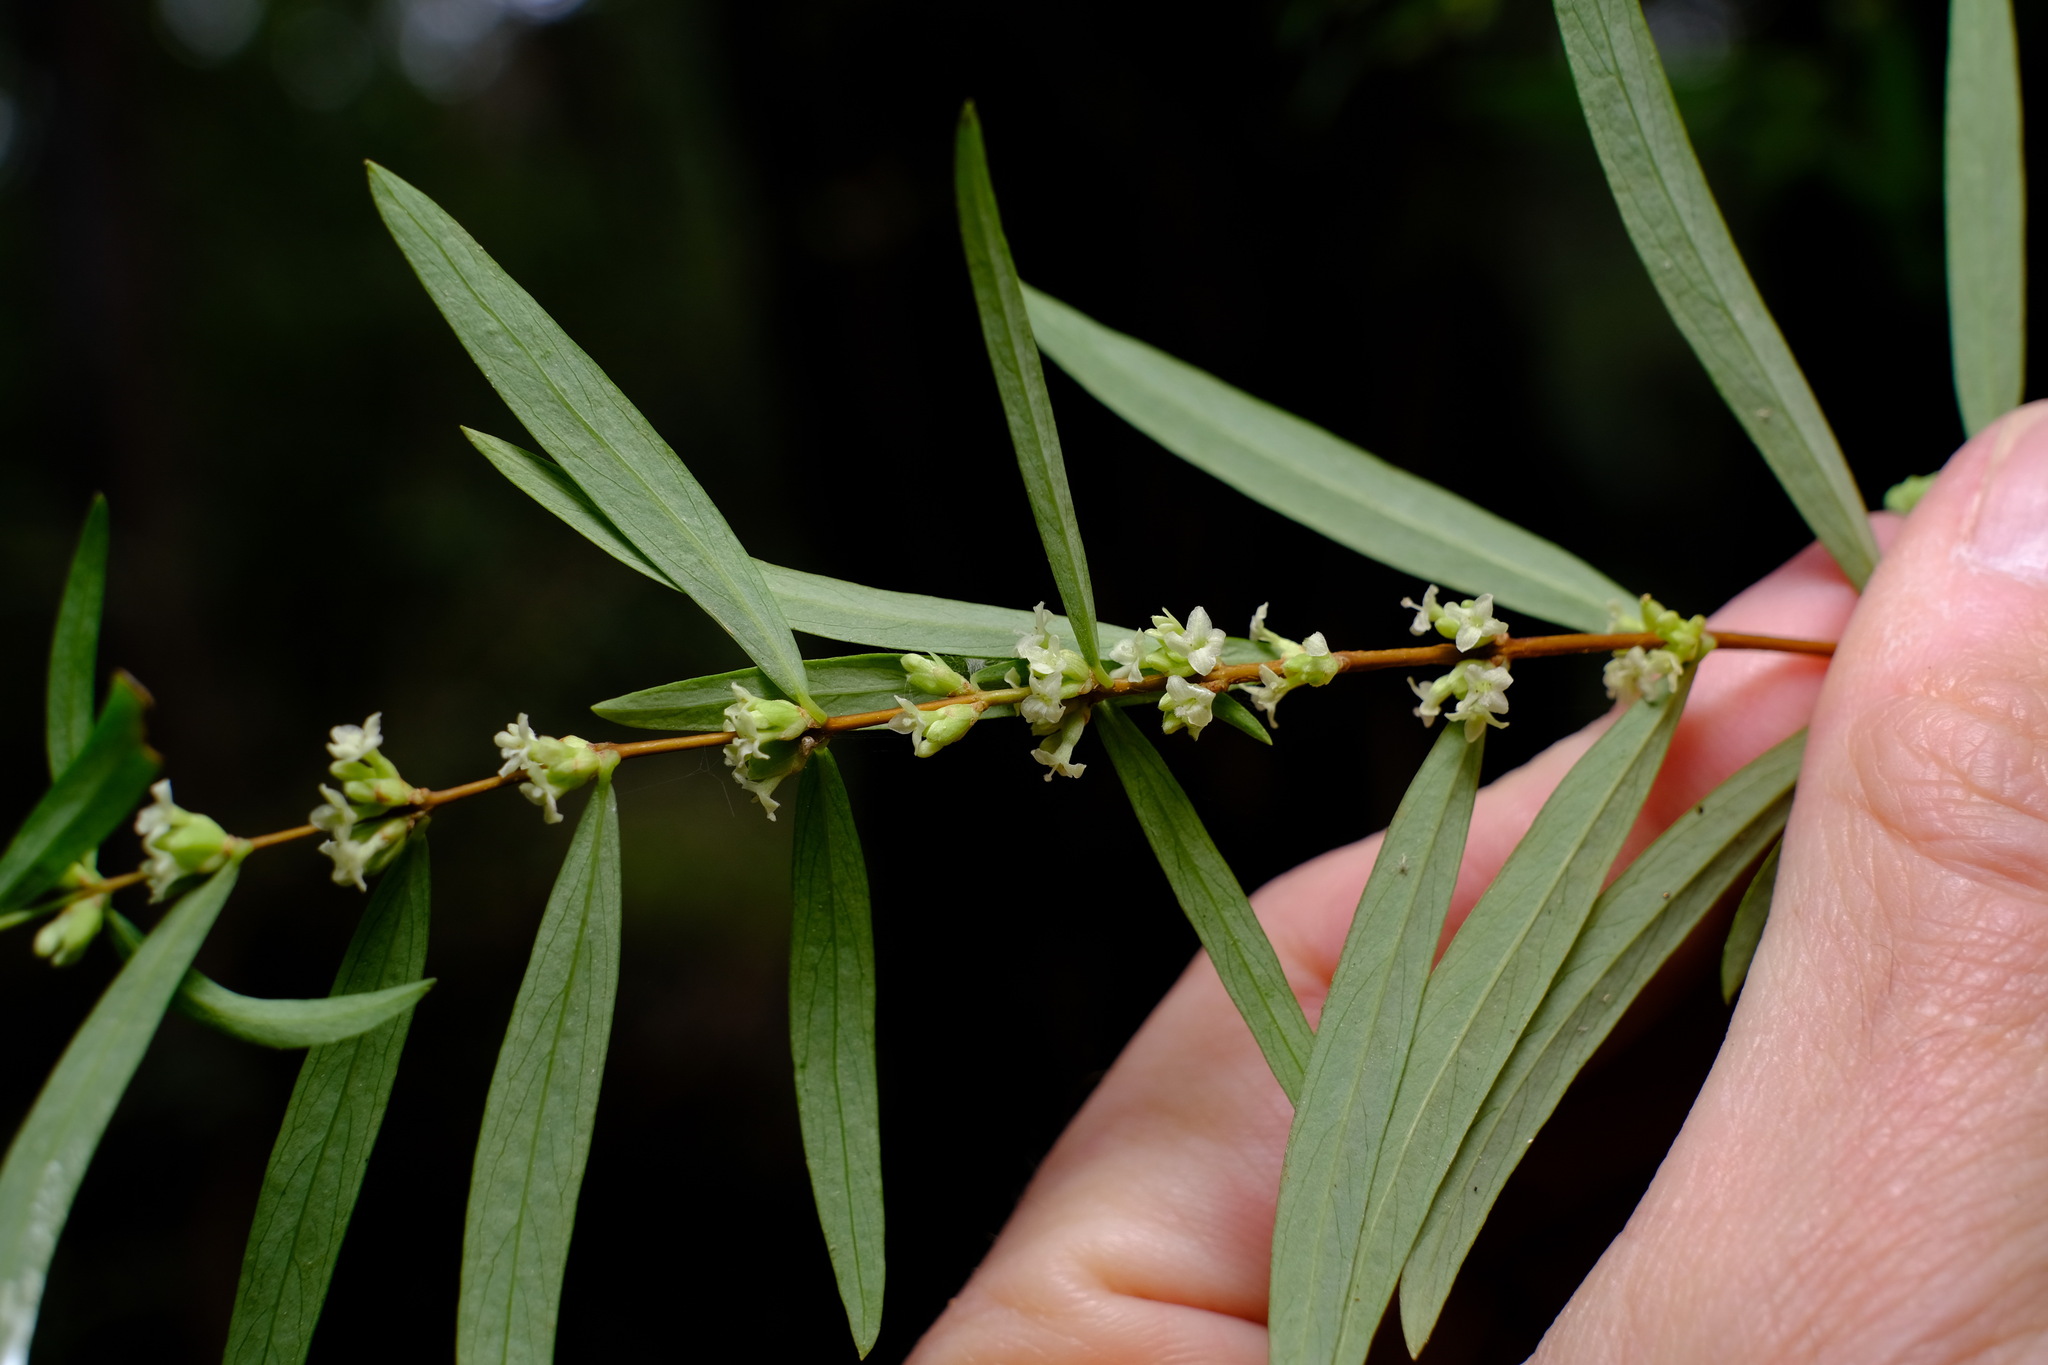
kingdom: Plantae
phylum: Tracheophyta
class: Magnoliopsida
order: Malvales
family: Thymelaeaceae
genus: Pimelea
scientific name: Pimelea axiflora
